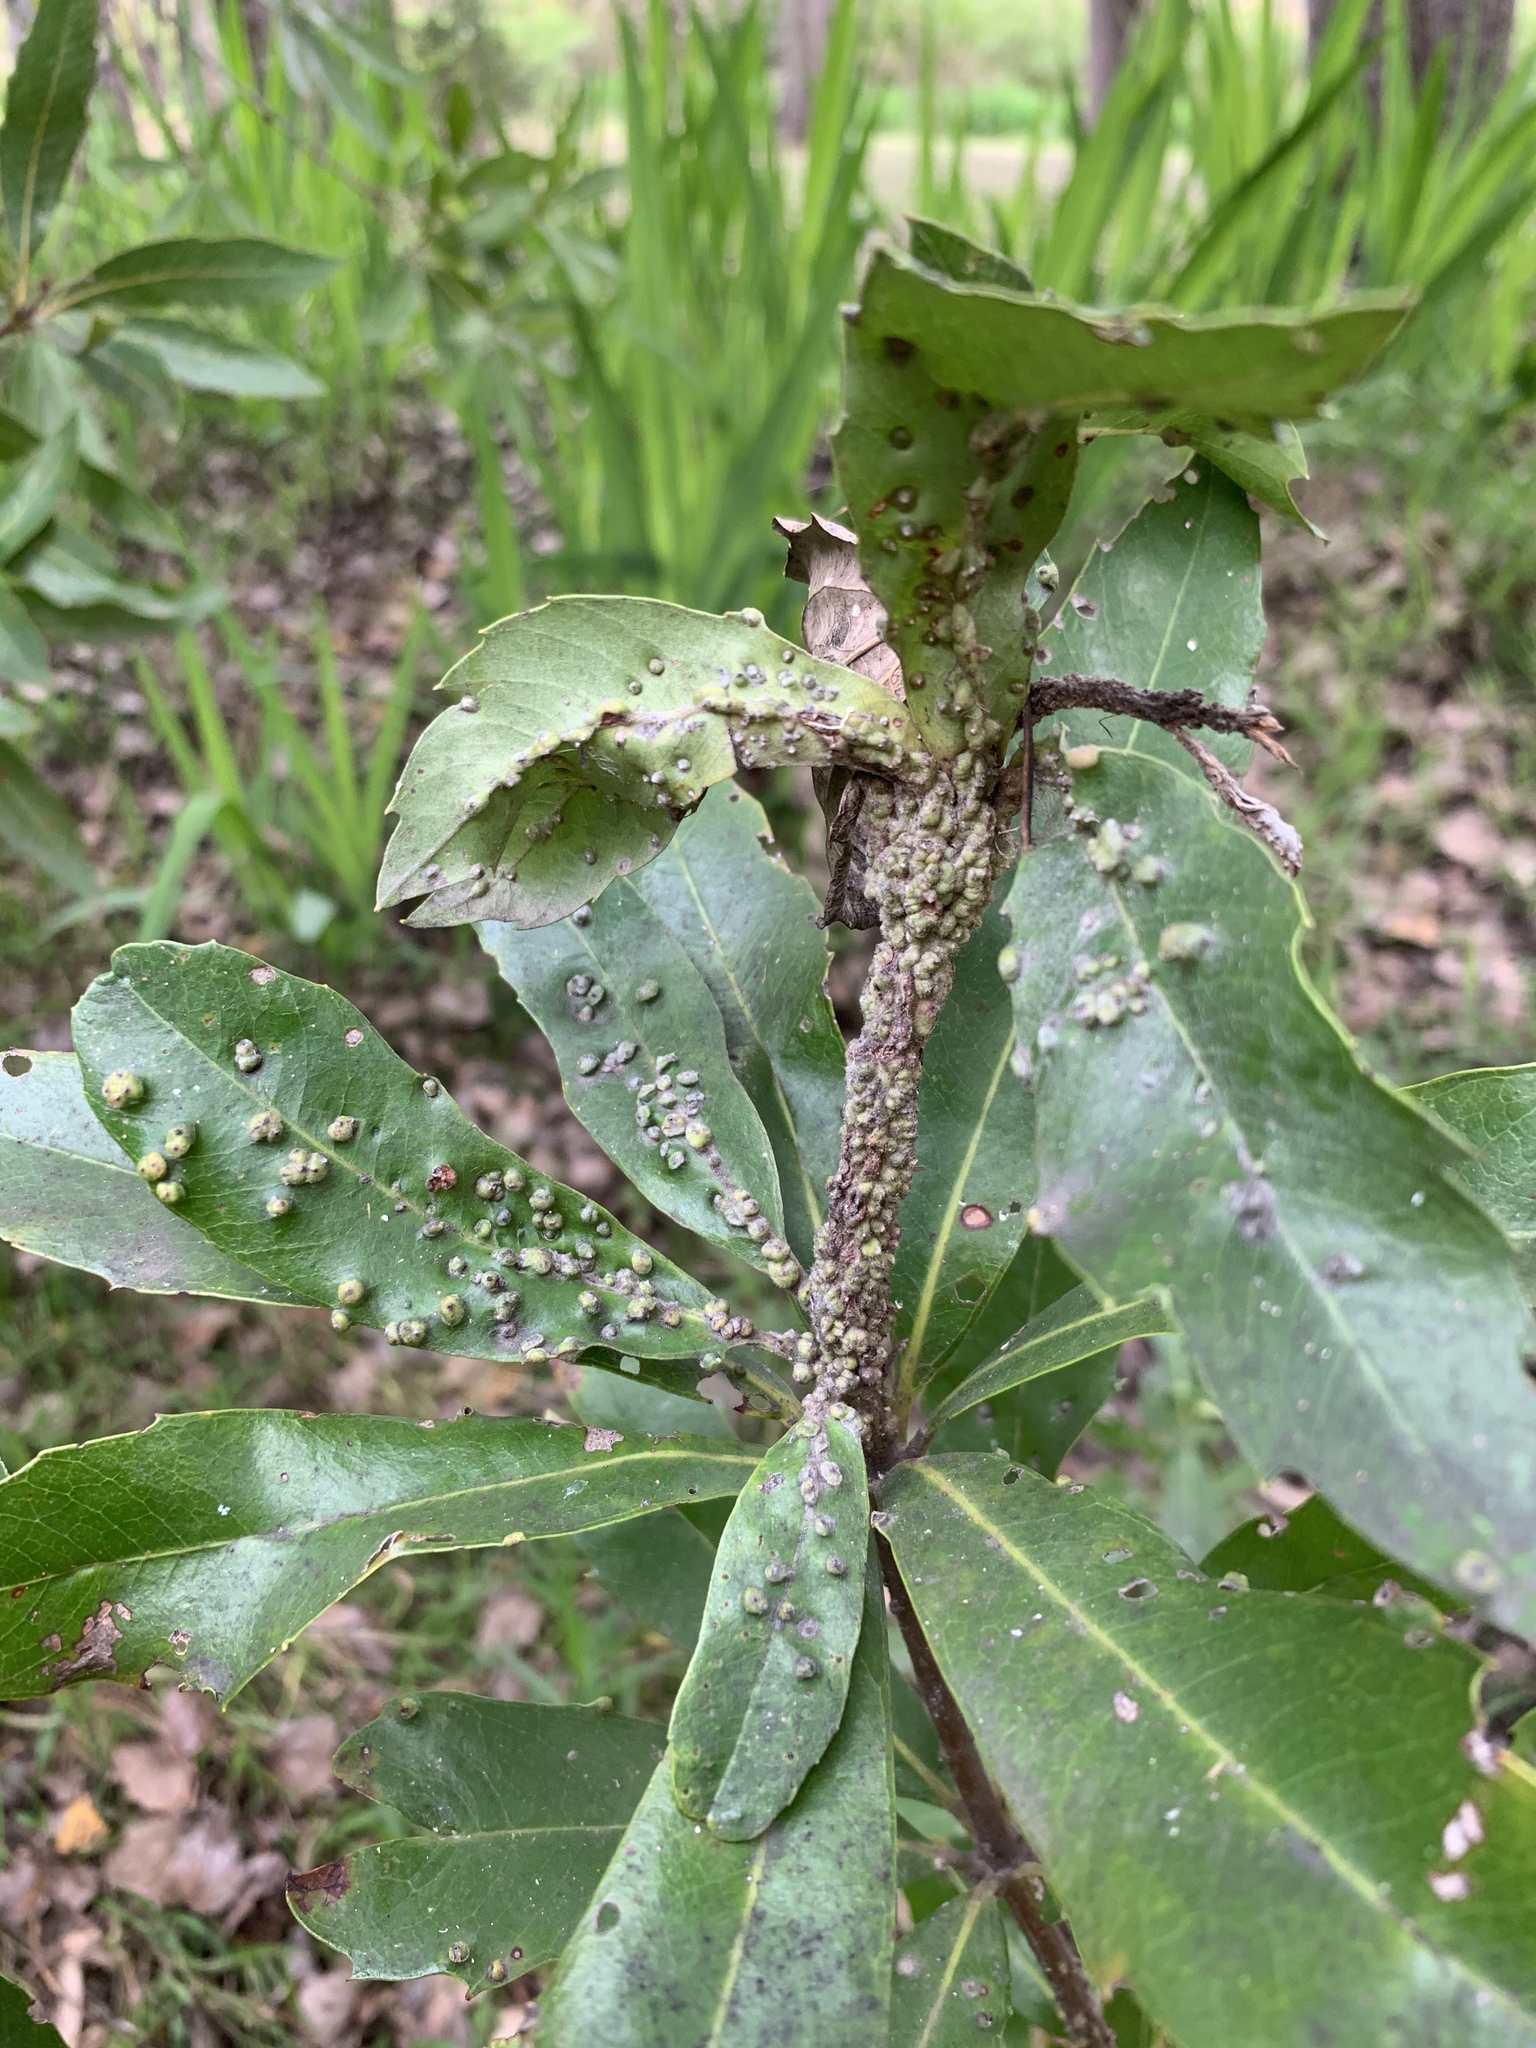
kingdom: Plantae
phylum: Tracheophyta
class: Magnoliopsida
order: Proteales
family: Proteaceae
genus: Brabejum
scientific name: Brabejum stellatifolium
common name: Wild almond
